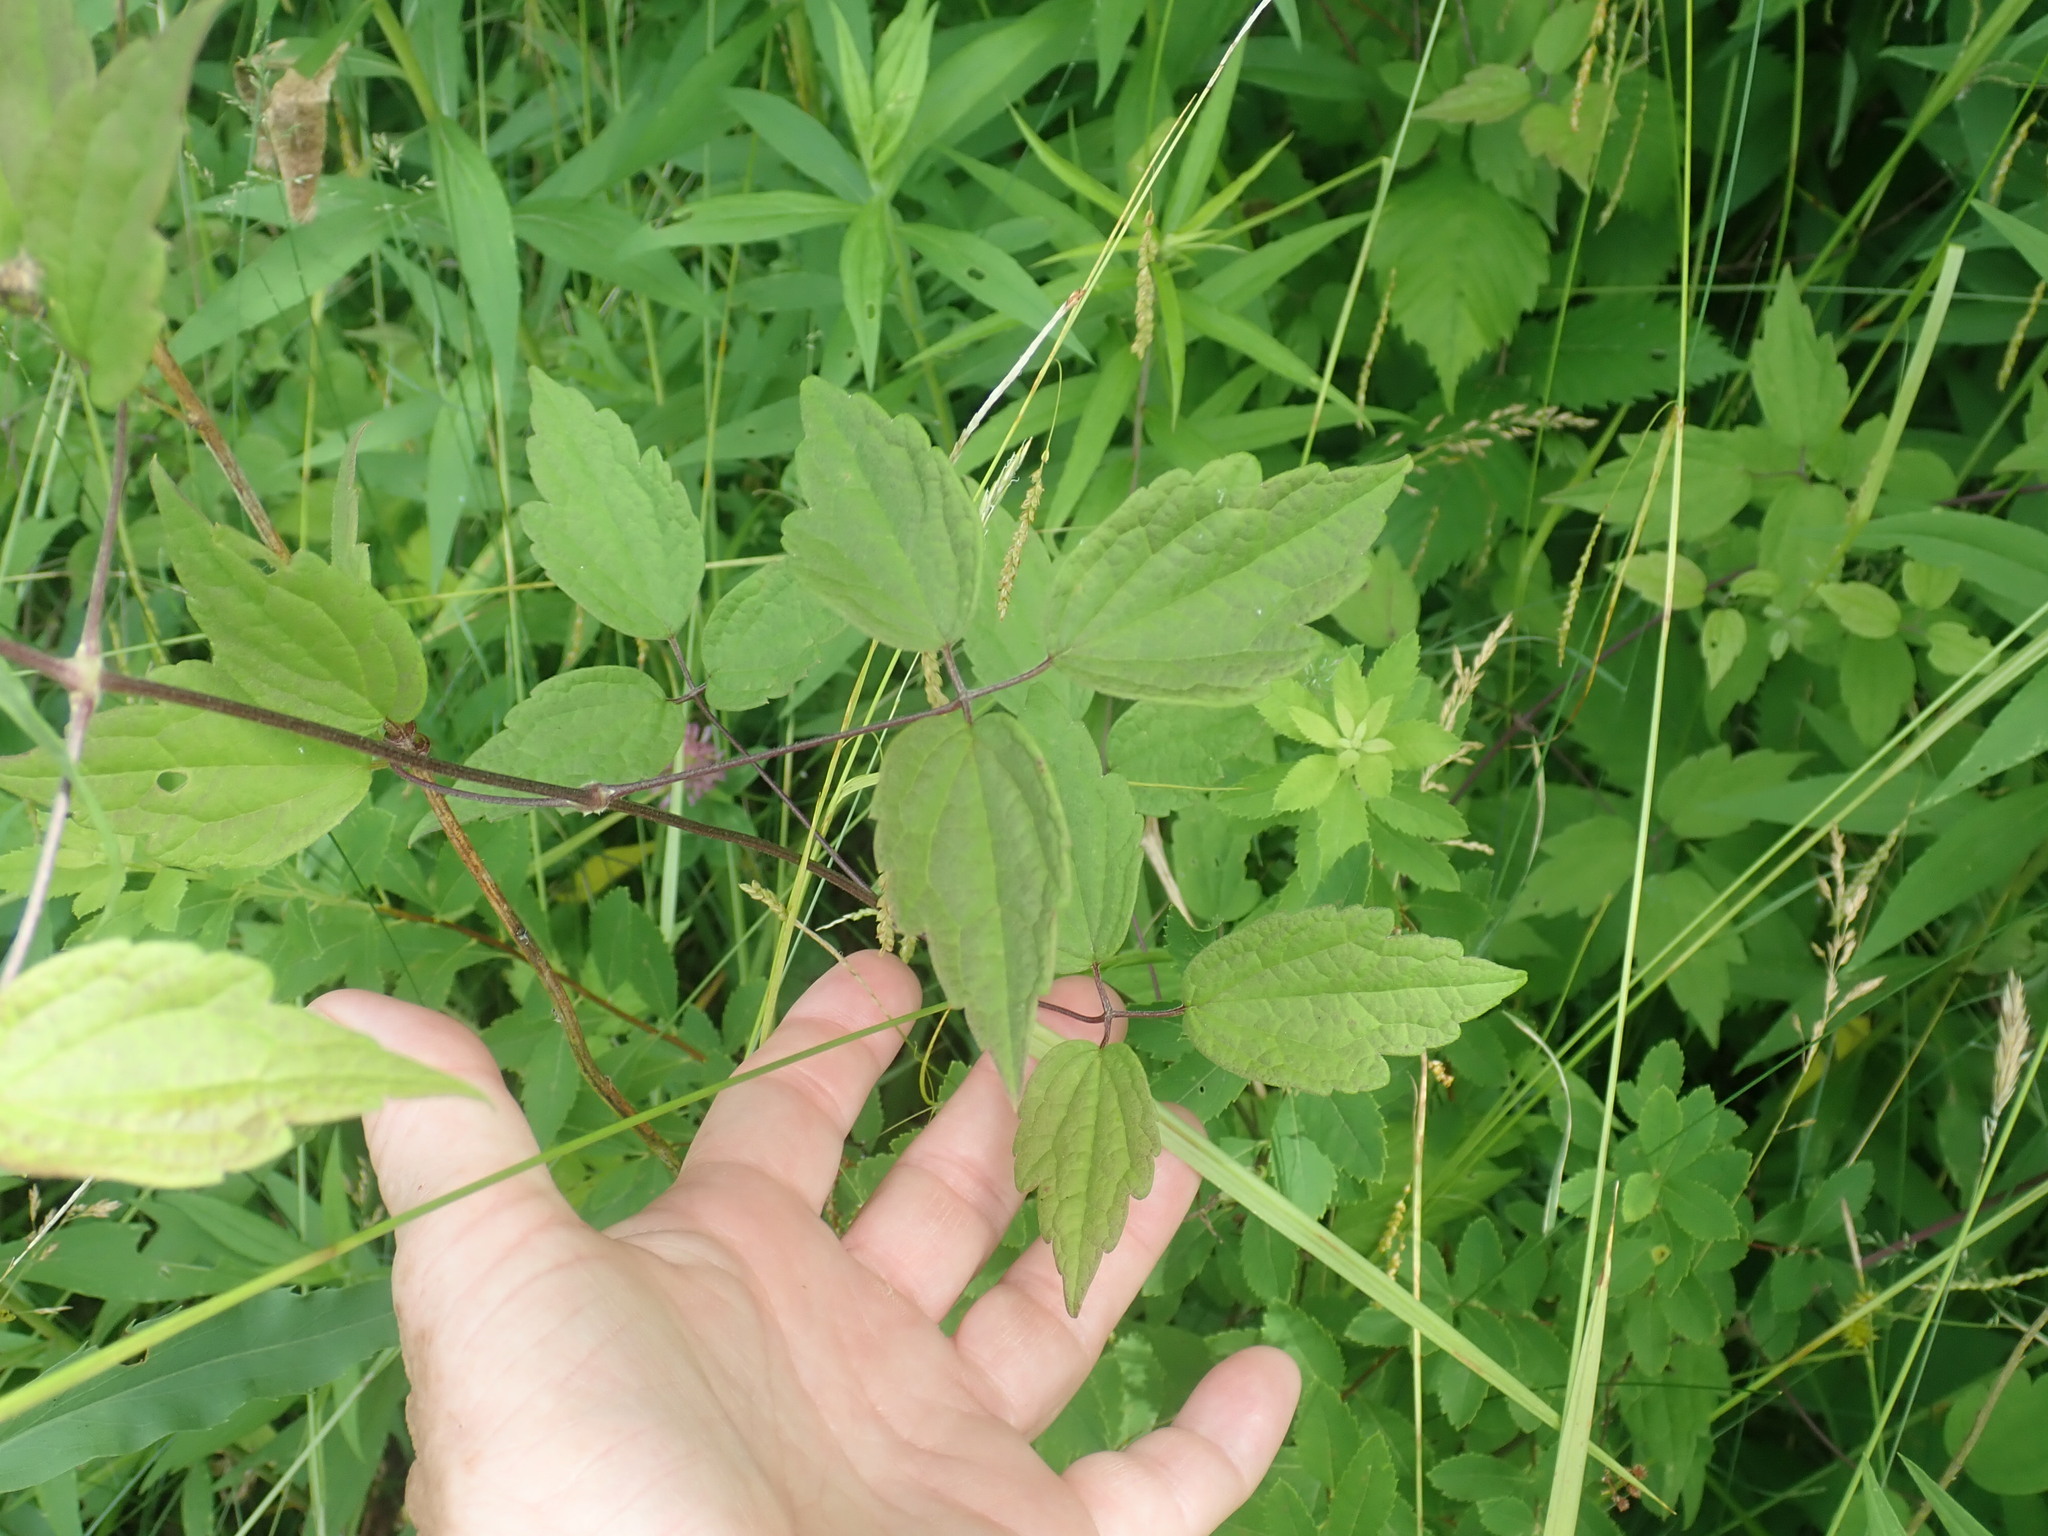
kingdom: Plantae
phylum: Tracheophyta
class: Magnoliopsida
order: Ranunculales
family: Ranunculaceae
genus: Clematis
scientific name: Clematis virginiana
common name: Virgin's-bower
